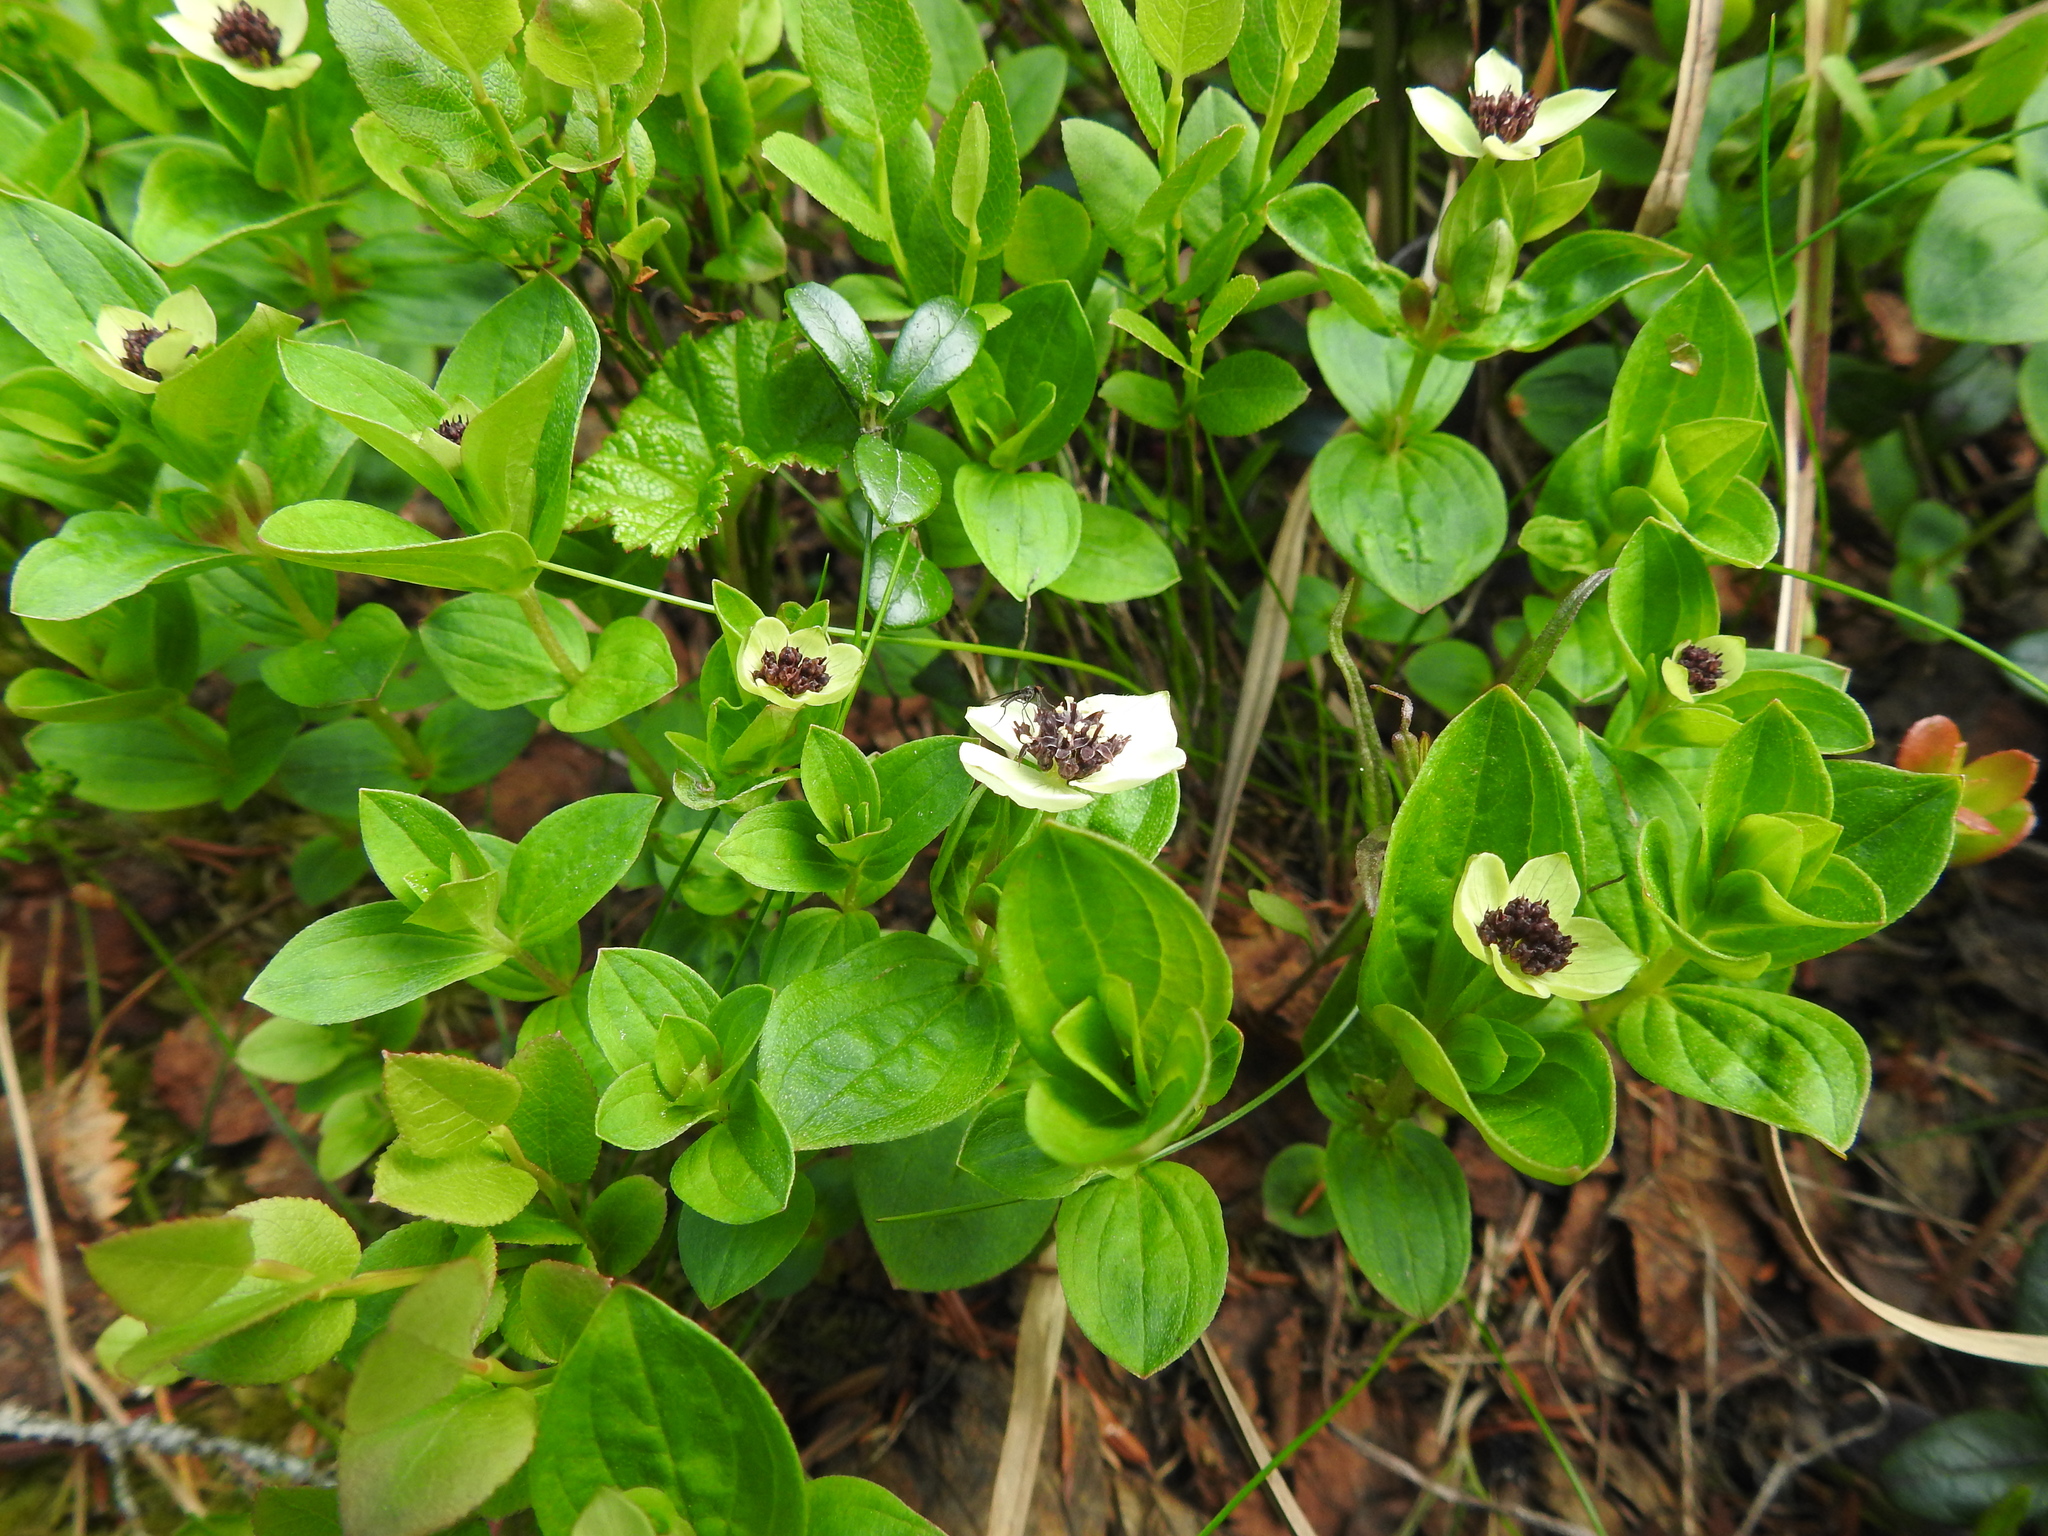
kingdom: Plantae
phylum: Tracheophyta
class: Magnoliopsida
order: Cornales
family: Cornaceae
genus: Cornus
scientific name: Cornus suecica
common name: Dwarf cornel
